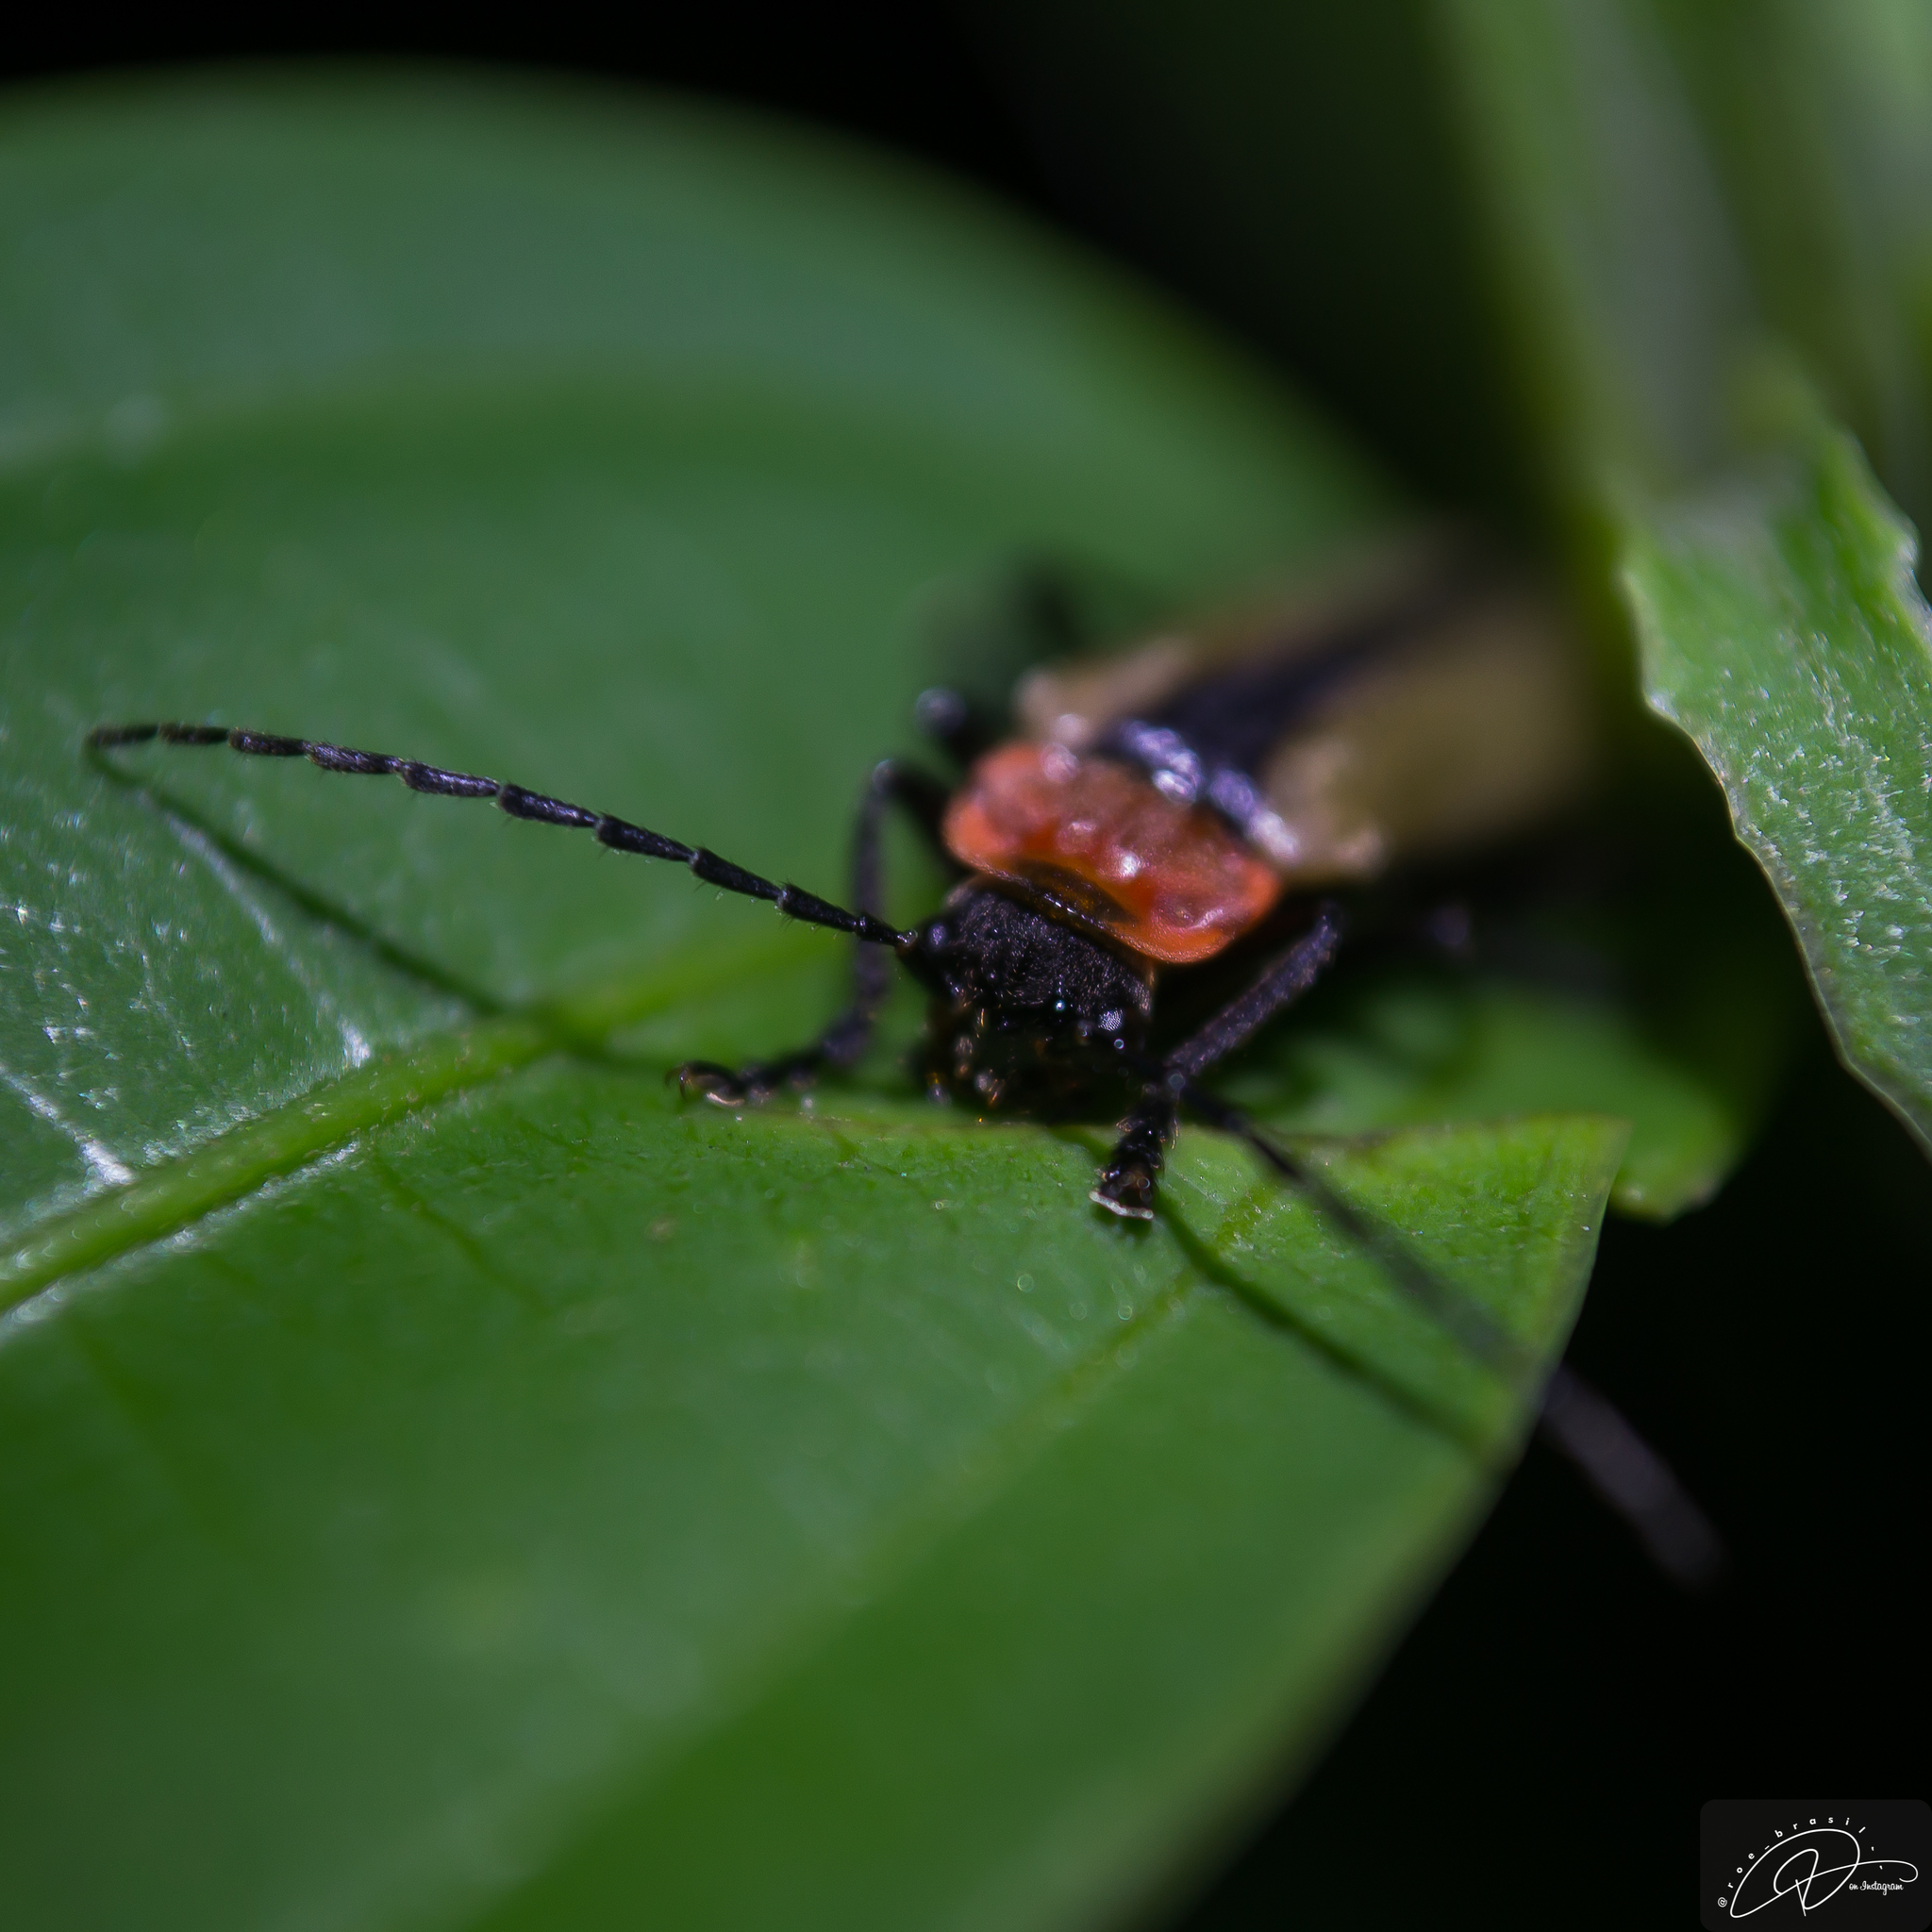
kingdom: Animalia
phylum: Arthropoda
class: Insecta
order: Coleoptera
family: Cantharidae
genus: Discodon
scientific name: Discodon
